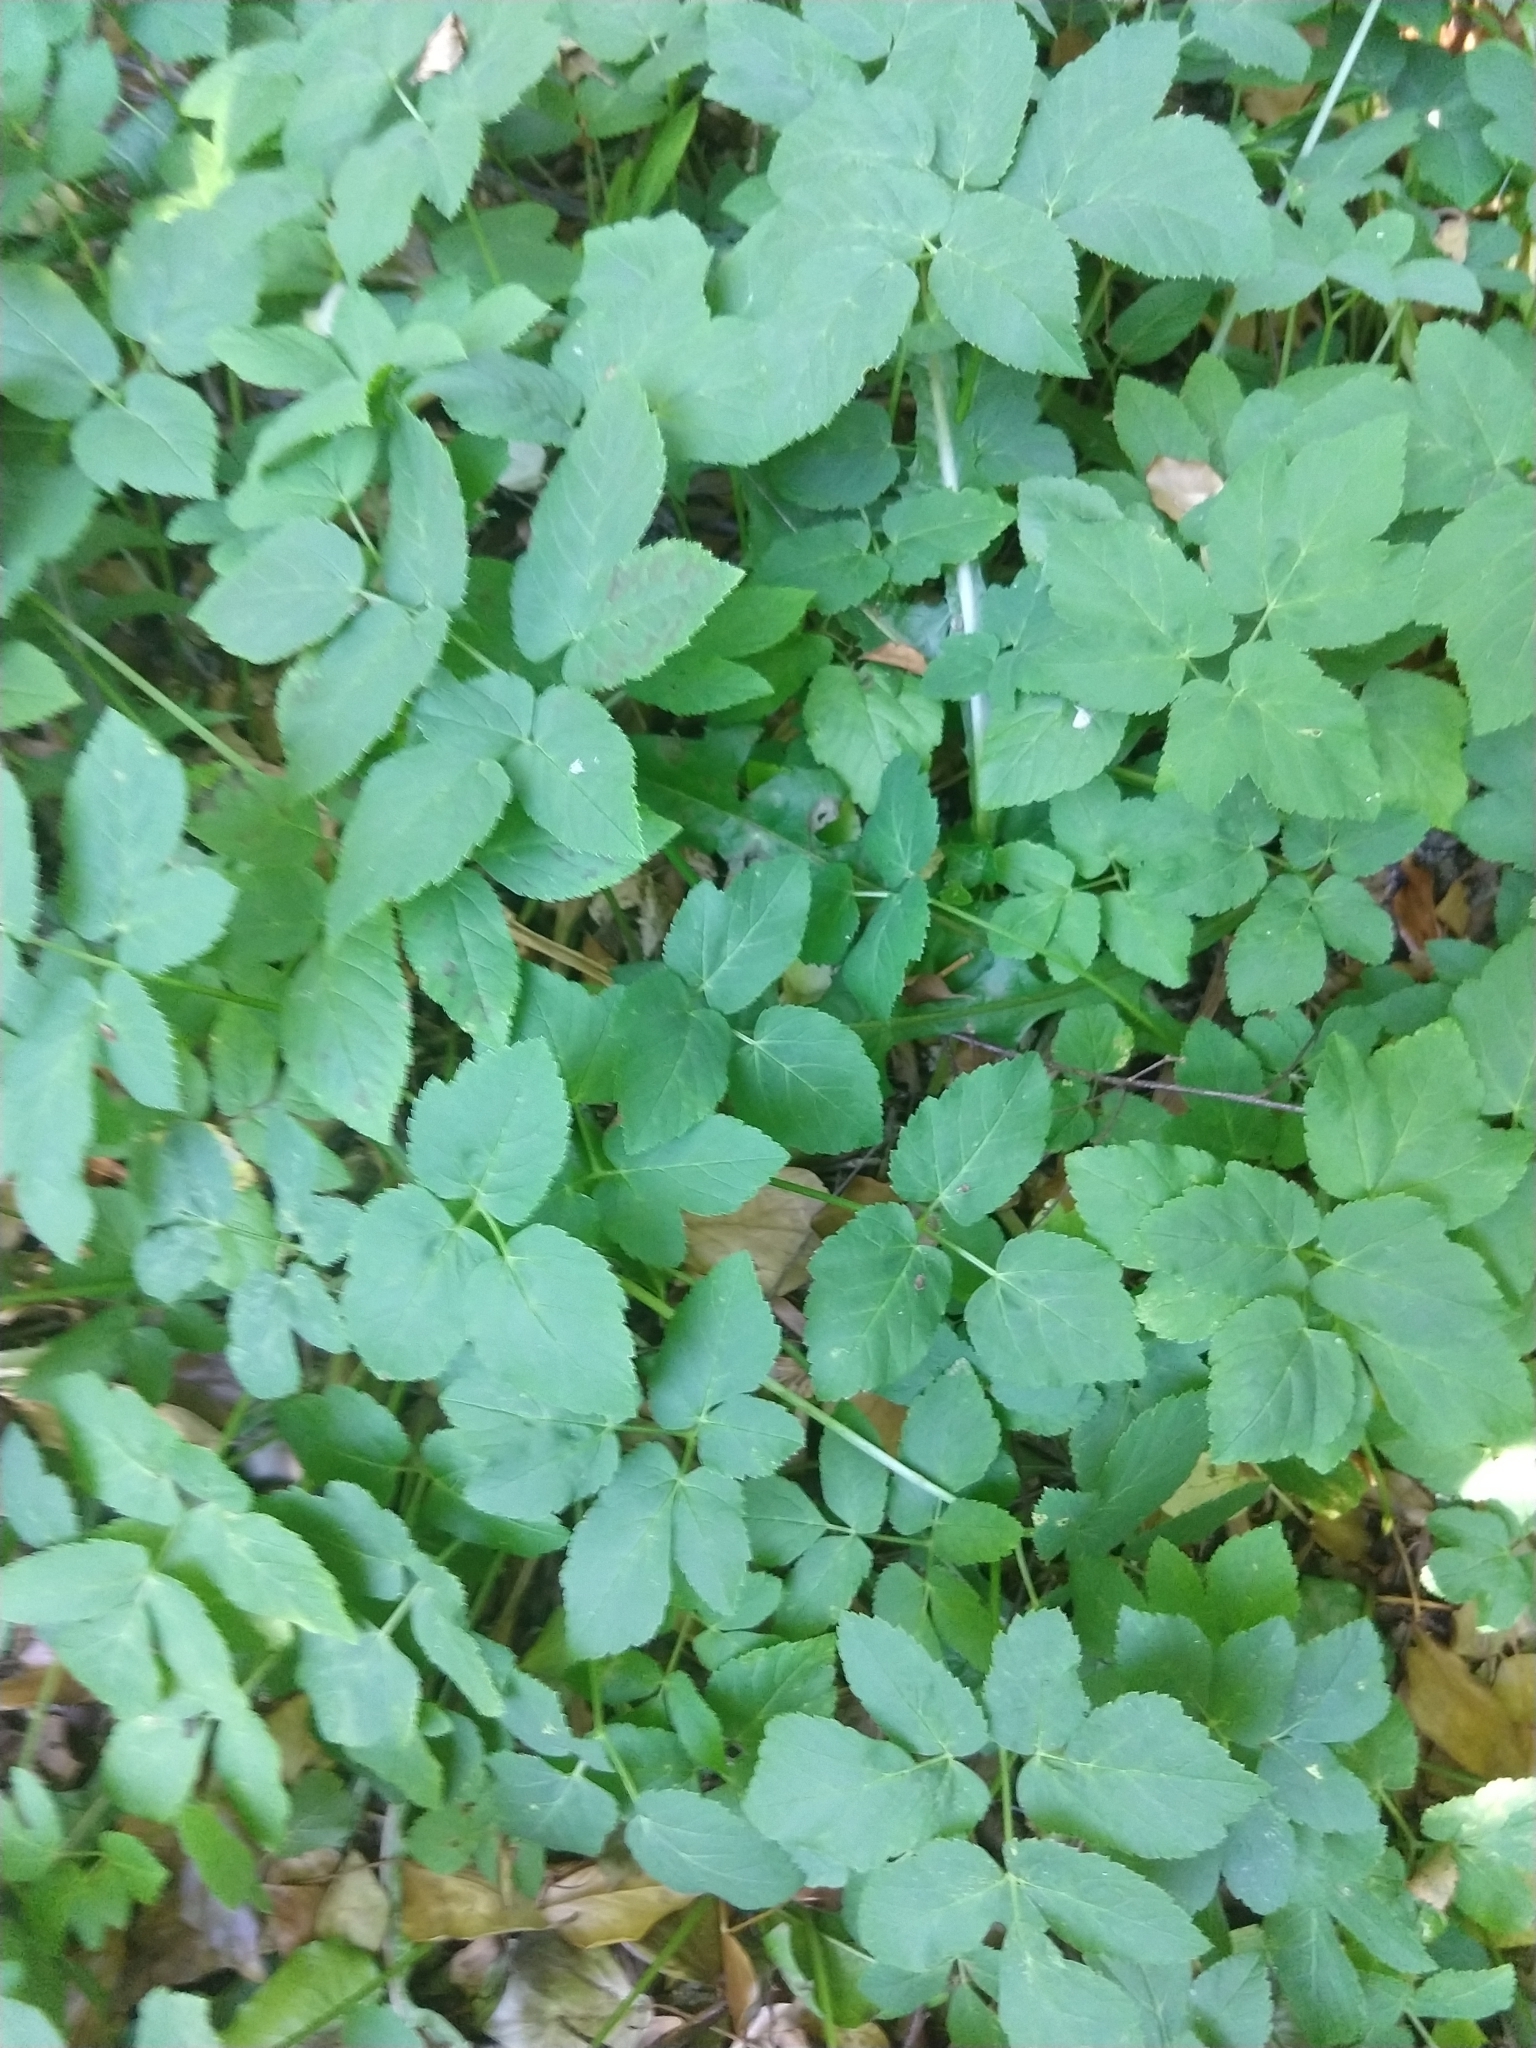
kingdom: Plantae
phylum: Tracheophyta
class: Magnoliopsida
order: Apiales
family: Apiaceae
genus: Aegopodium
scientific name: Aegopodium podagraria
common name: Ground-elder
